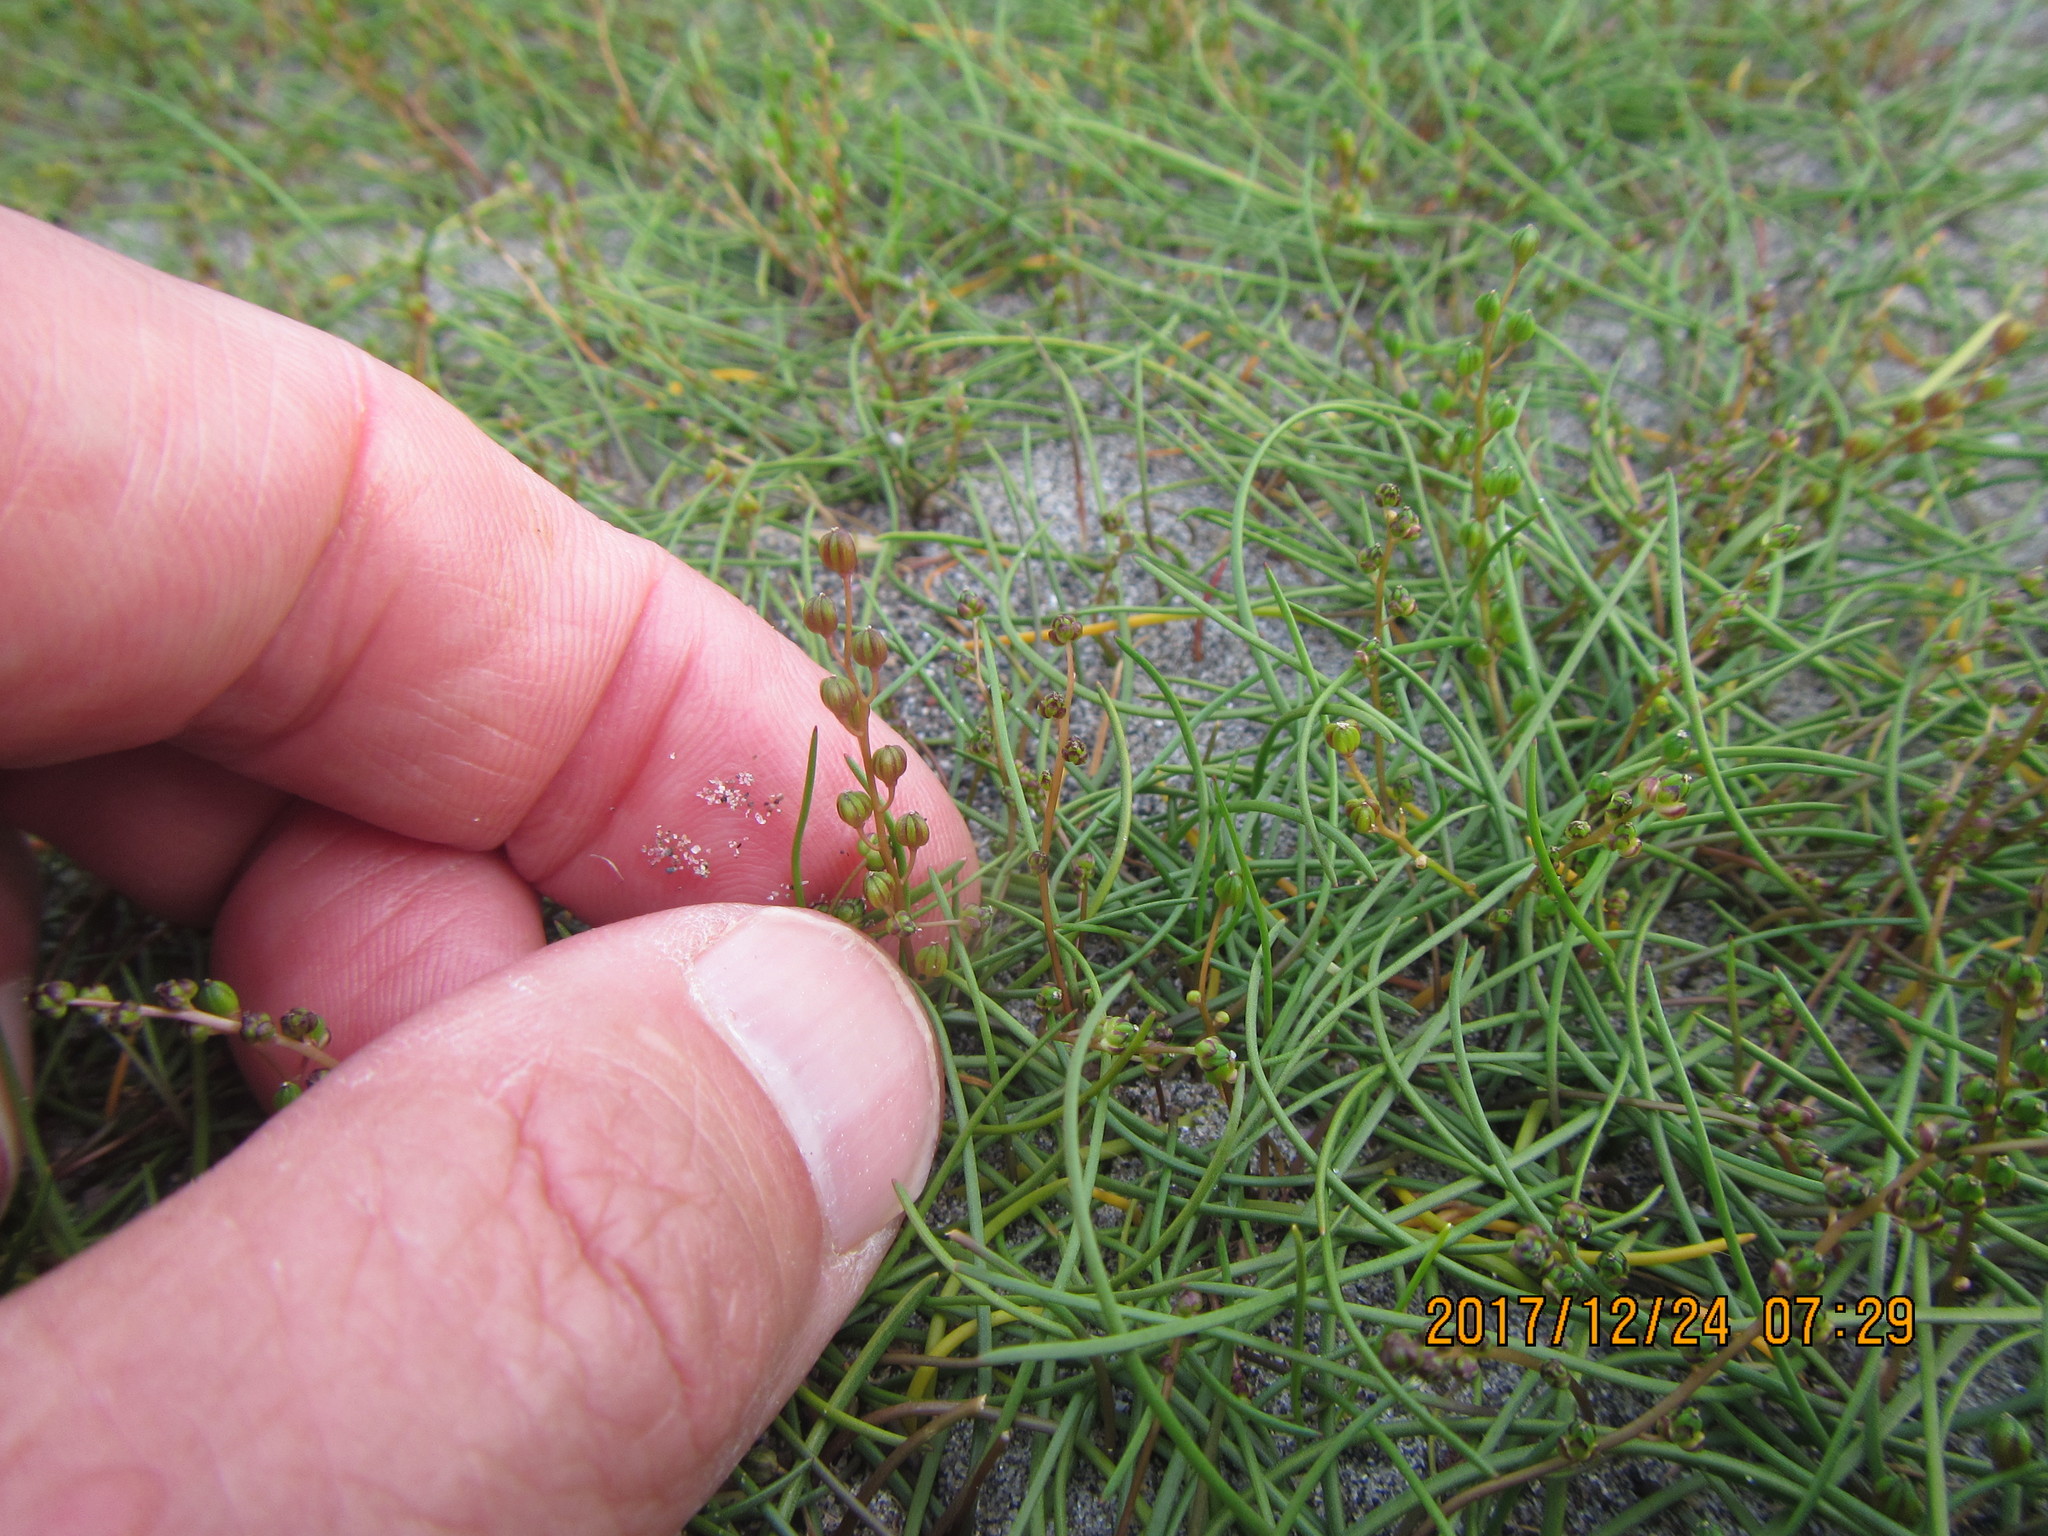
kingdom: Plantae
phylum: Tracheophyta
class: Liliopsida
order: Alismatales
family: Juncaginaceae
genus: Triglochin
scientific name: Triglochin striata
